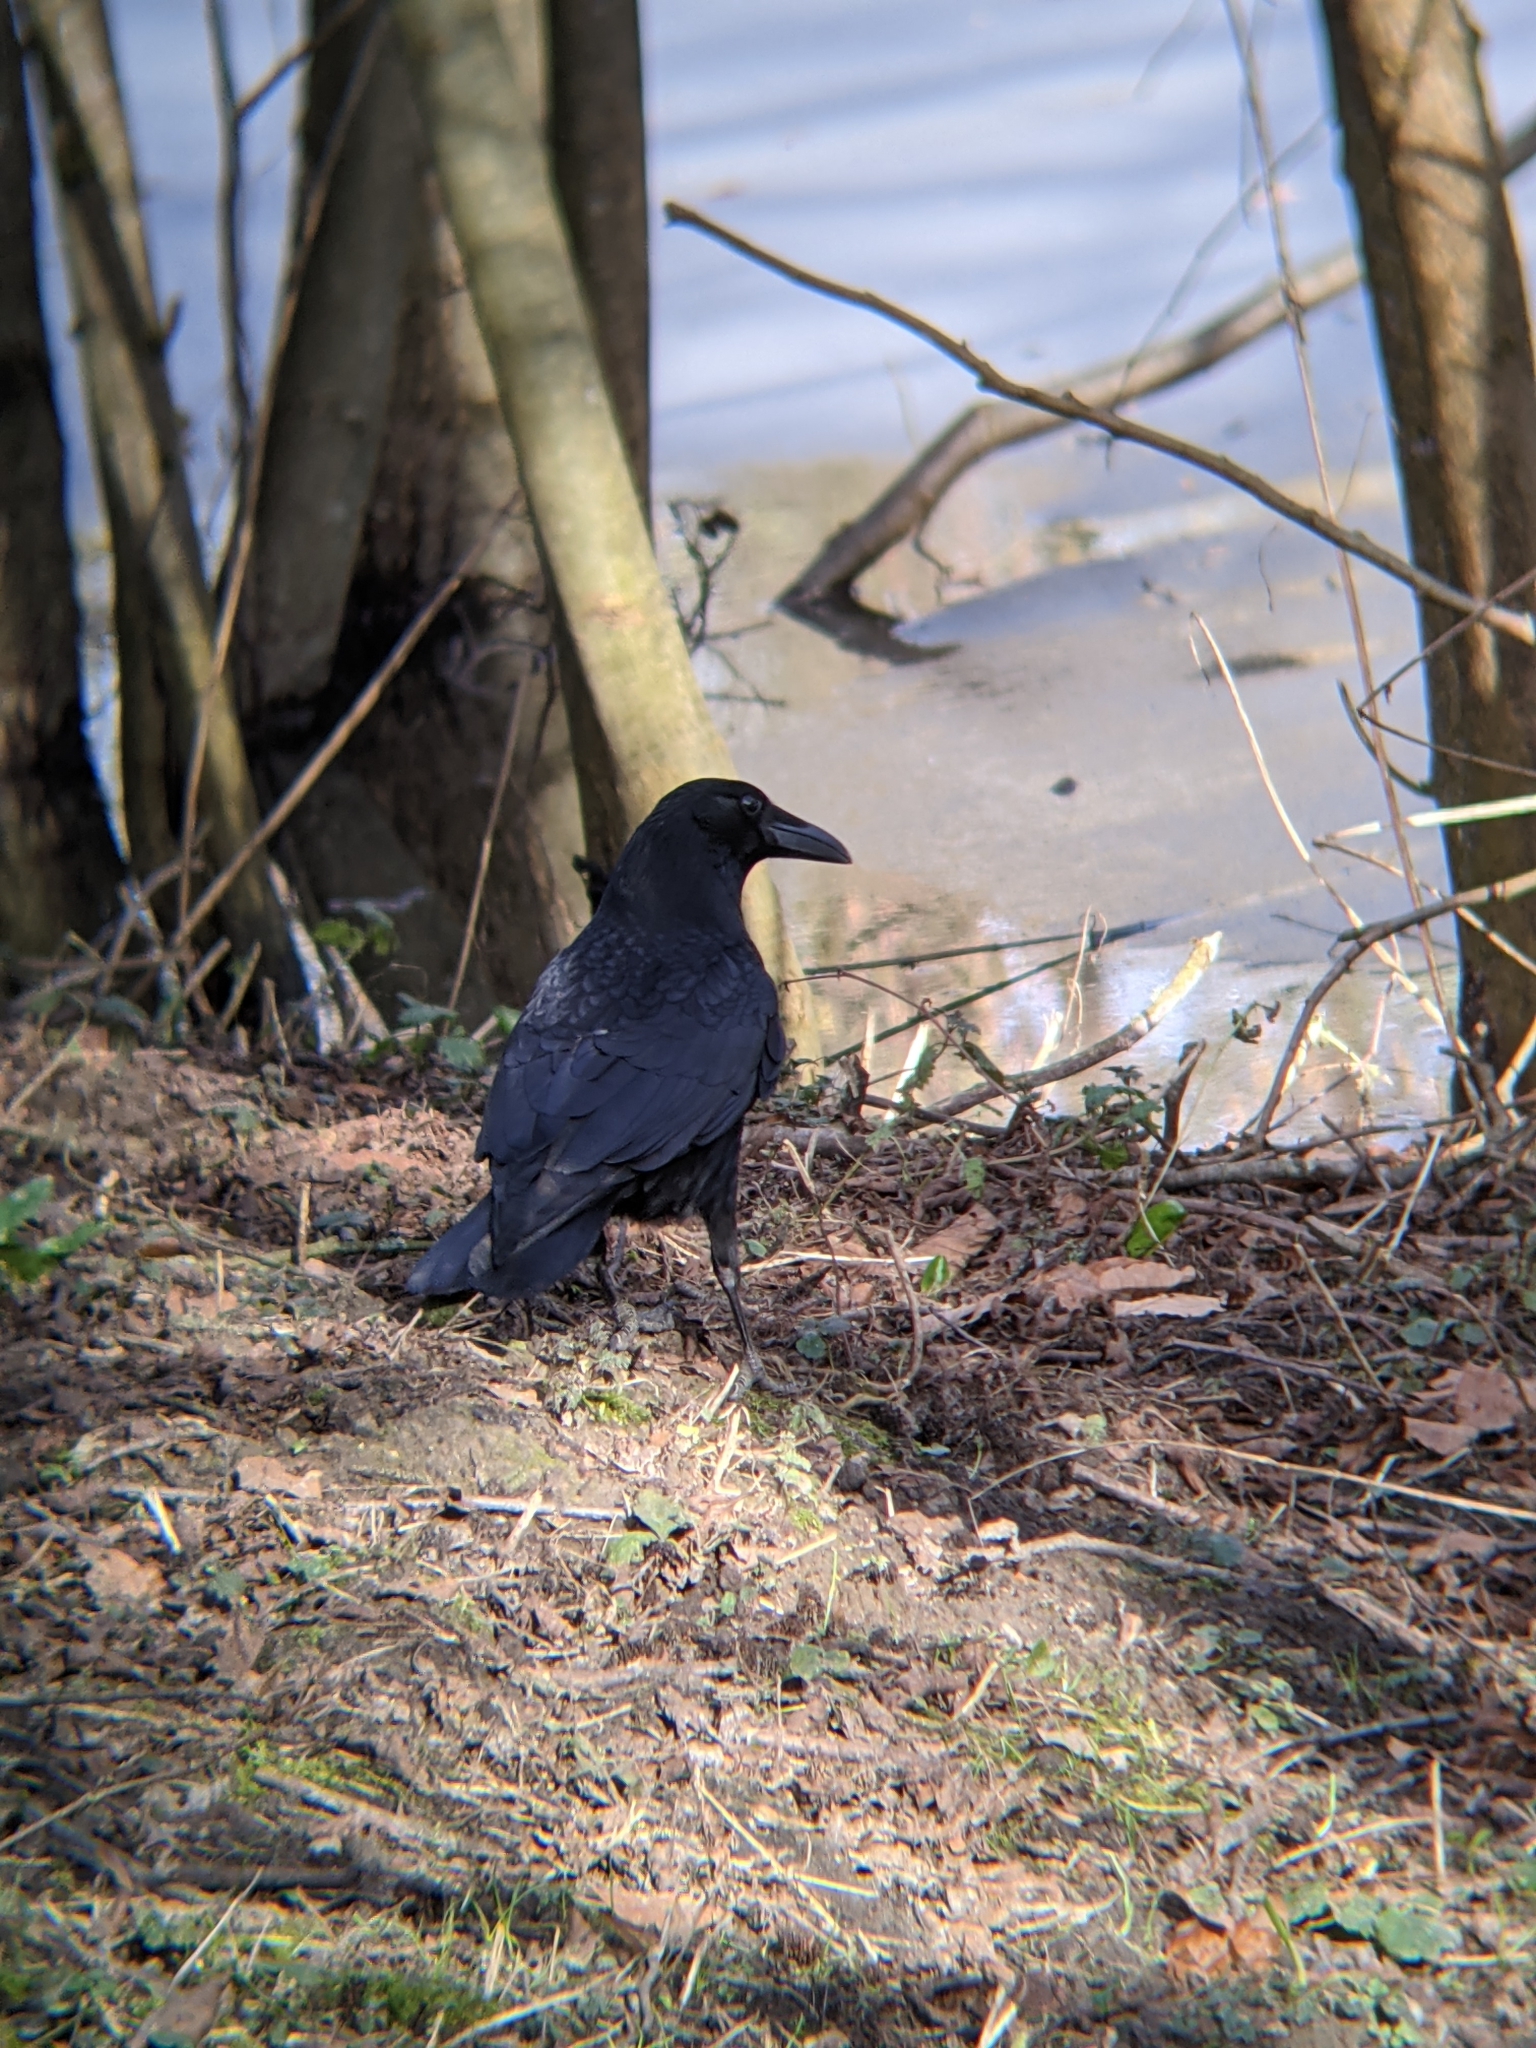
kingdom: Animalia
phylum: Chordata
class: Aves
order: Passeriformes
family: Corvidae
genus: Corvus
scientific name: Corvus corone
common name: Carrion crow
